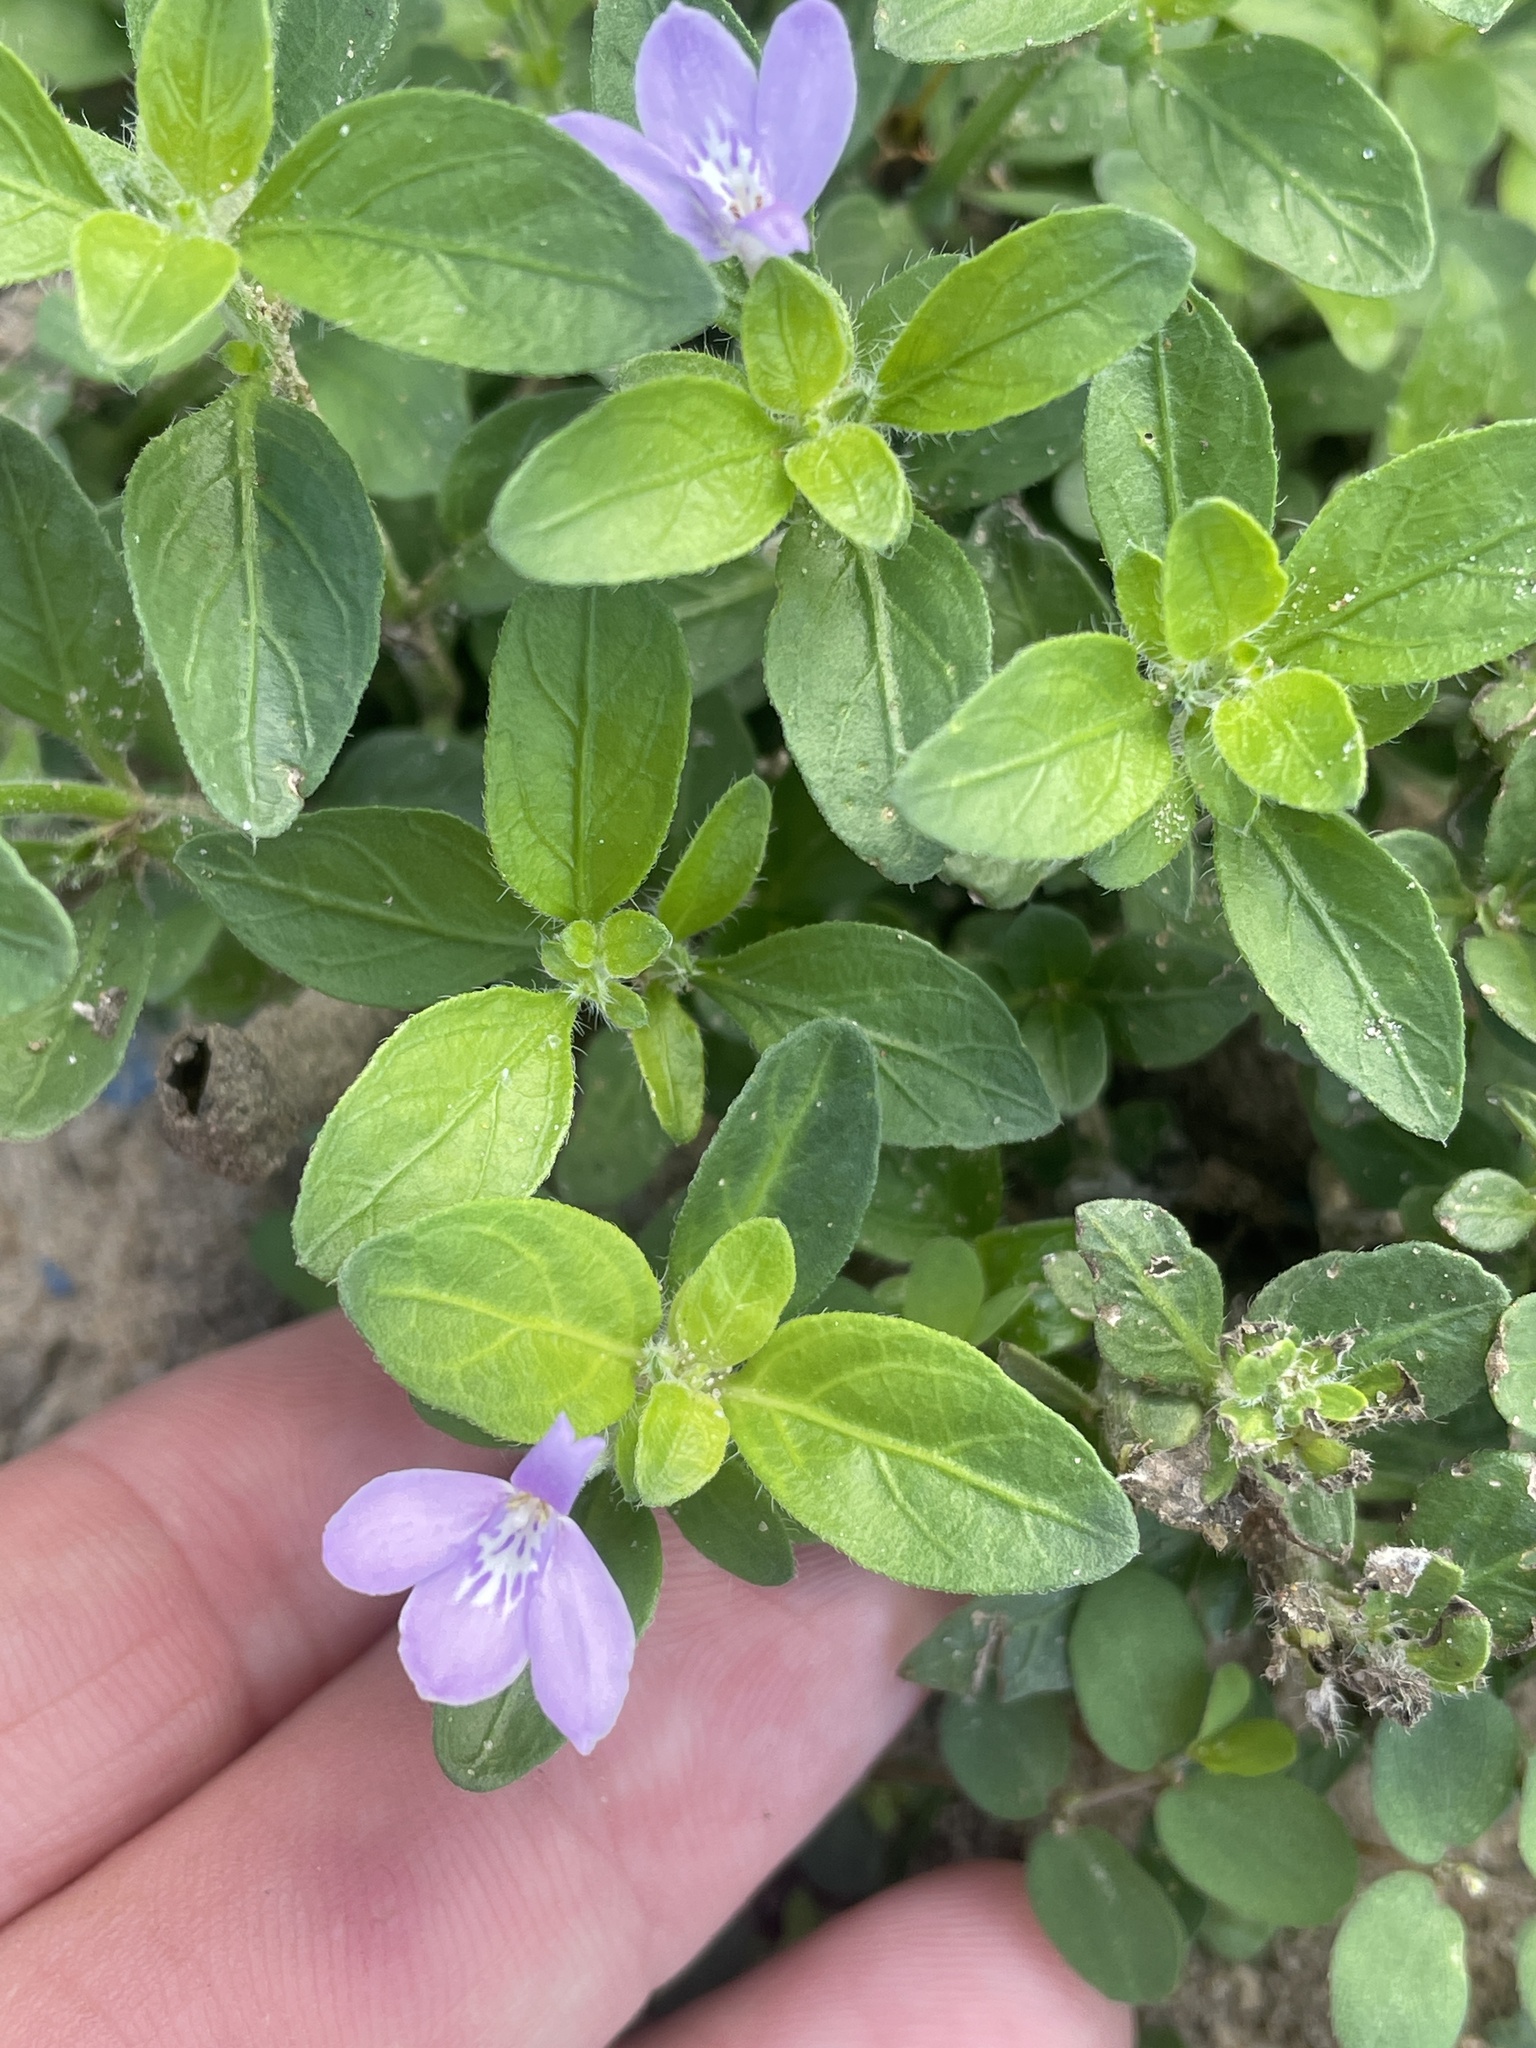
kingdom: Plantae
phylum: Tracheophyta
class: Magnoliopsida
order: Lamiales
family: Acanthaceae
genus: Justicia
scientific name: Justicia pilosella
